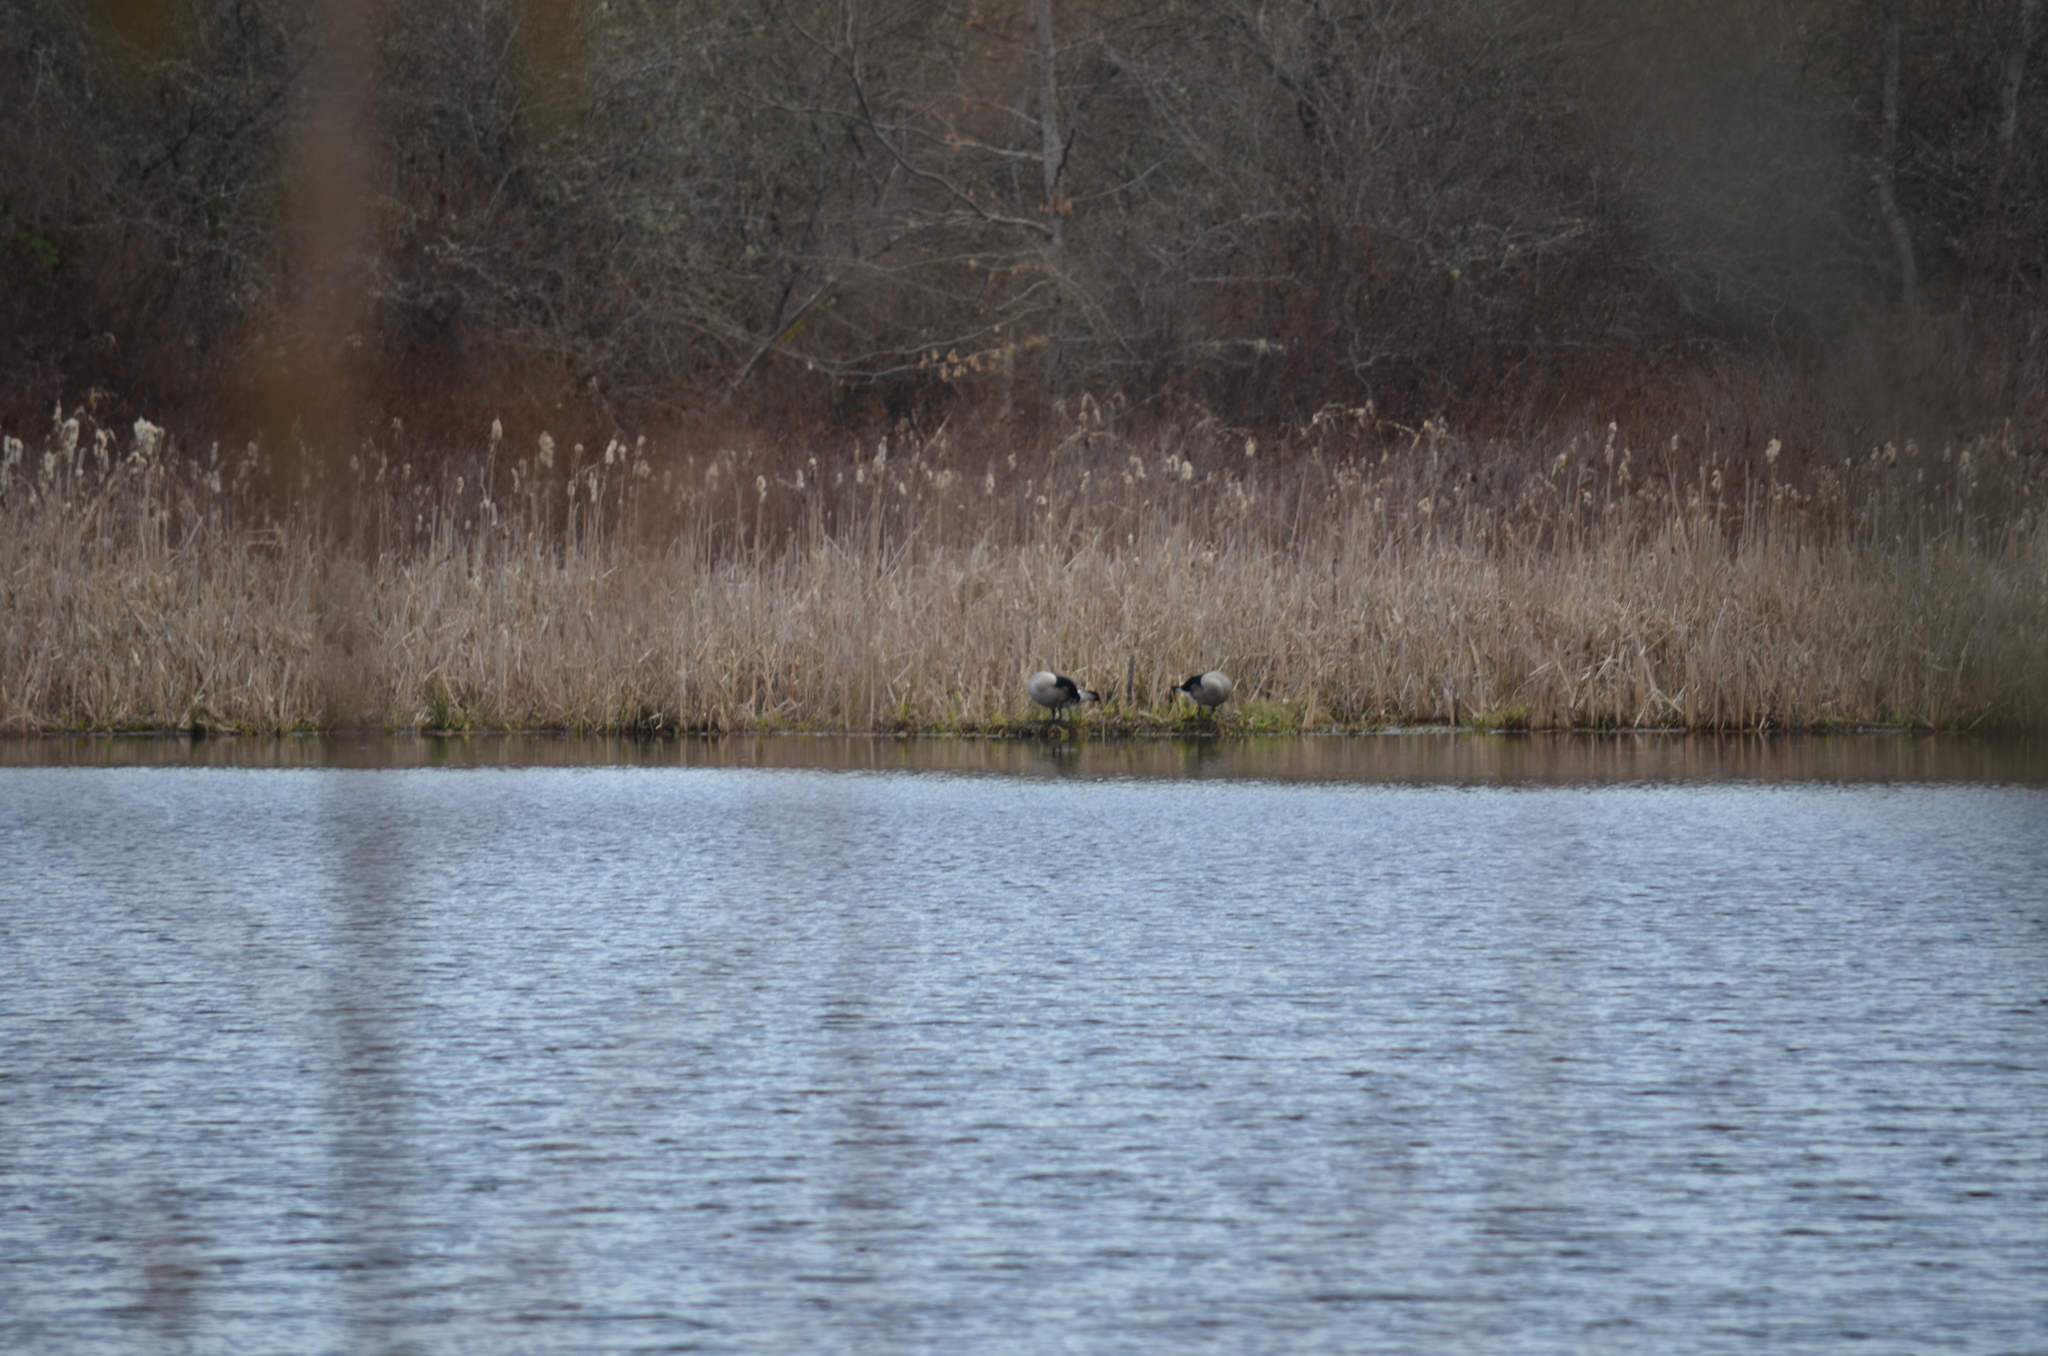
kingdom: Animalia
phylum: Chordata
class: Aves
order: Anseriformes
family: Anatidae
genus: Branta
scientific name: Branta canadensis
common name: Canada goose
